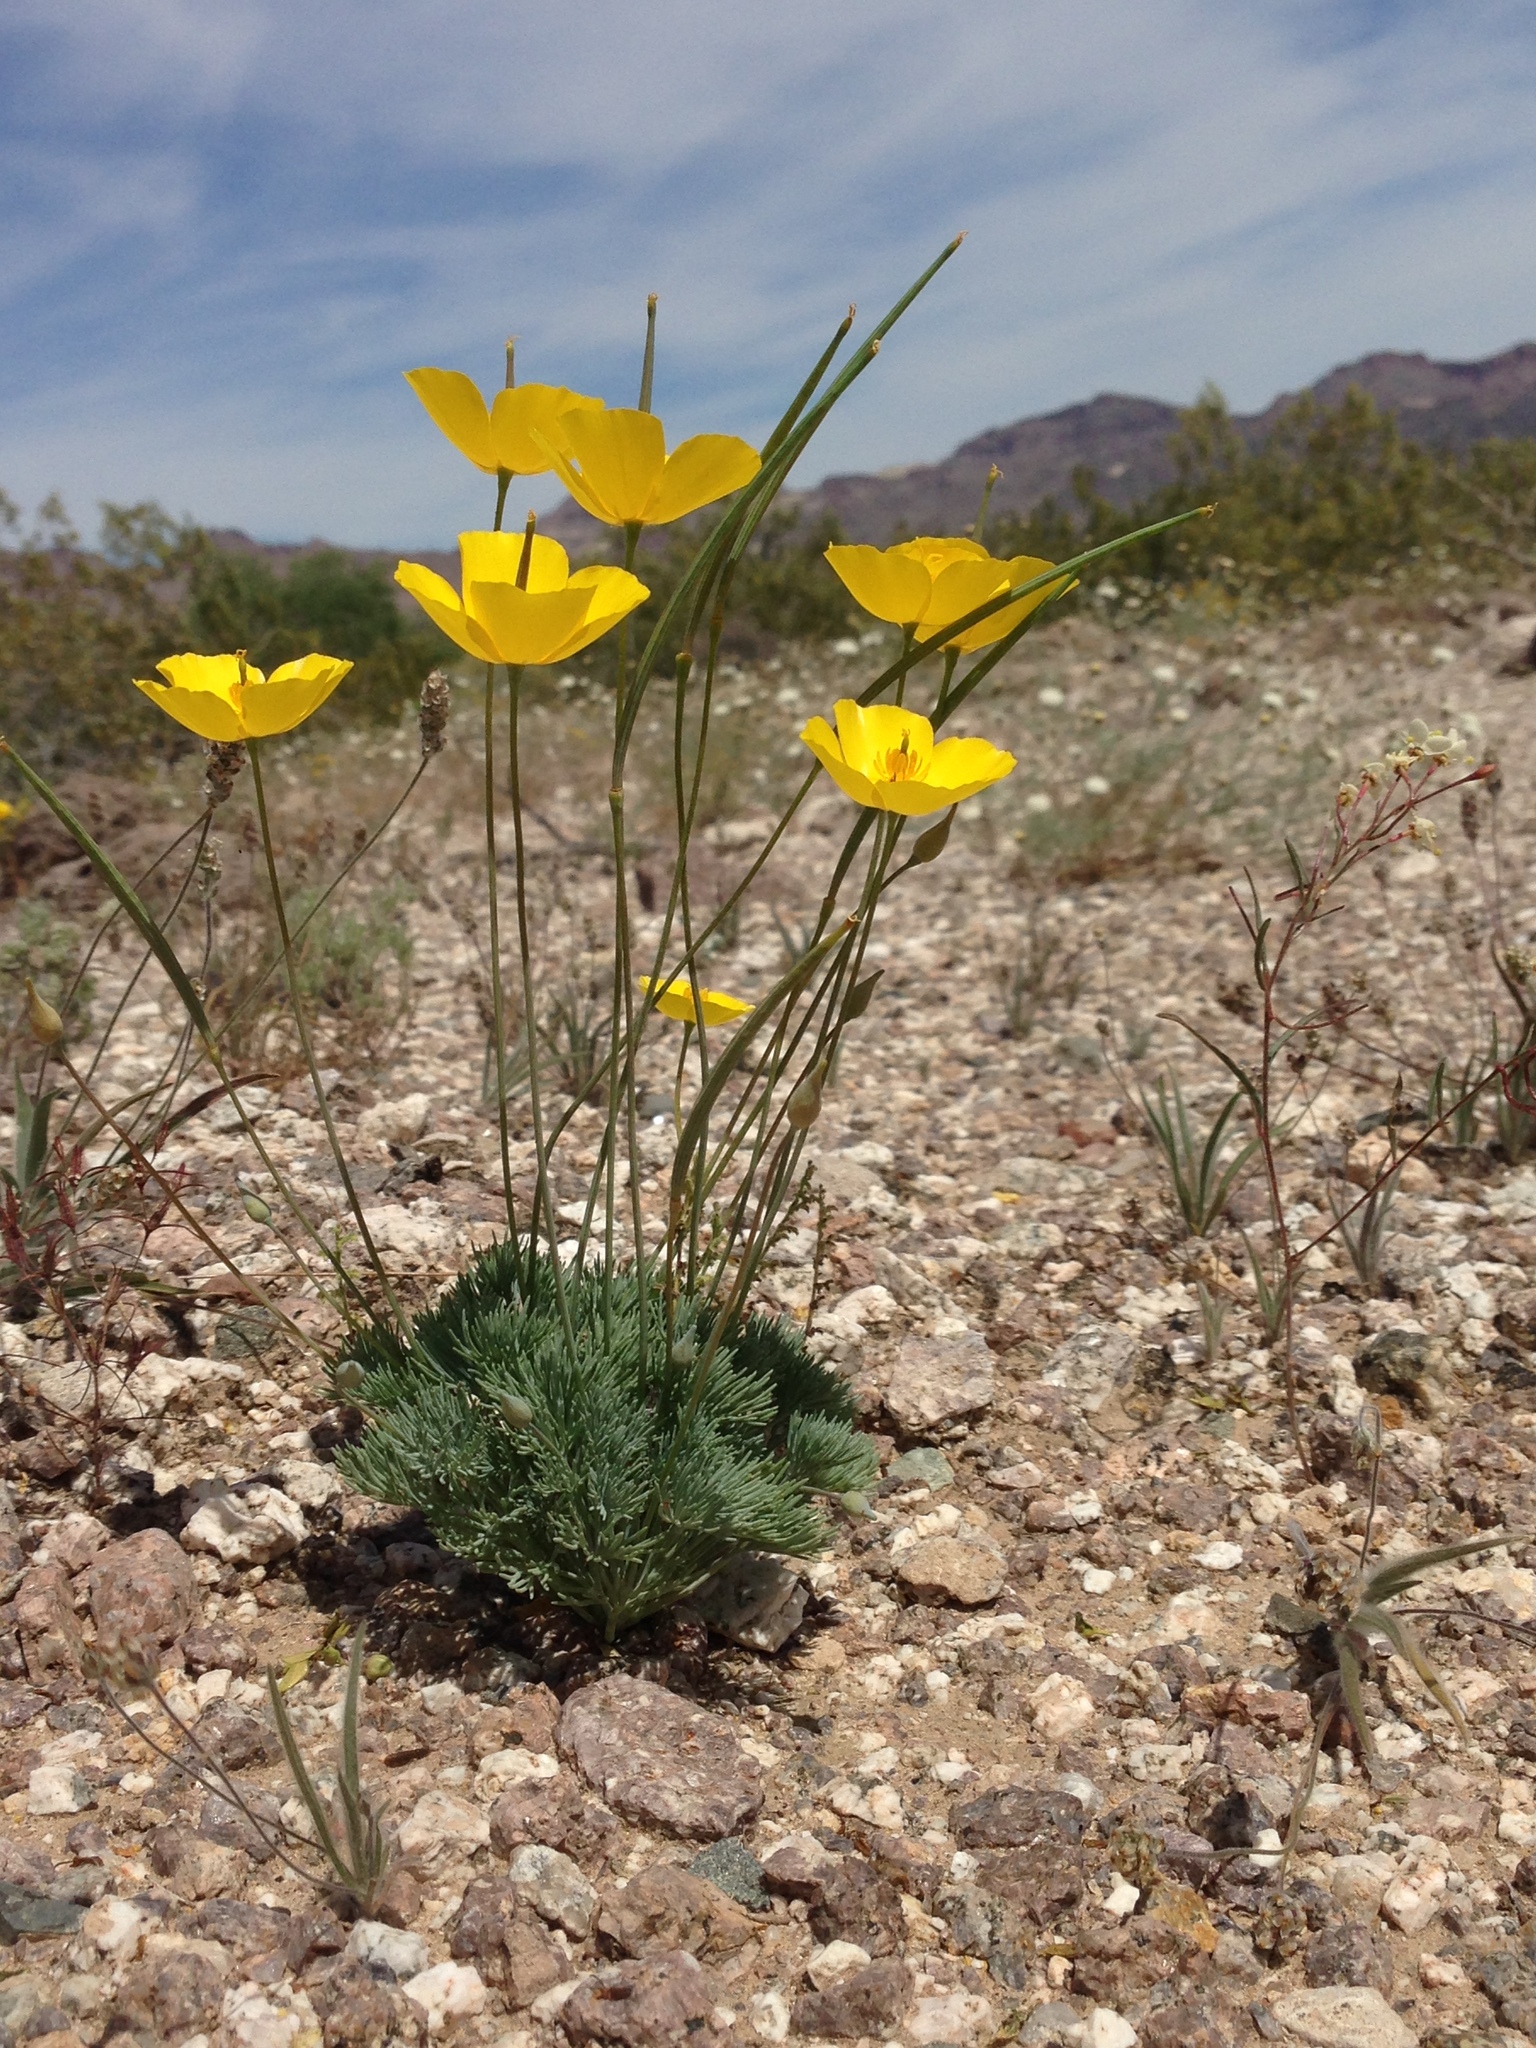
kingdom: Plantae
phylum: Tracheophyta
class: Magnoliopsida
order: Ranunculales
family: Papaveraceae
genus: Eschscholzia
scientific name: Eschscholzia glyptosperma
